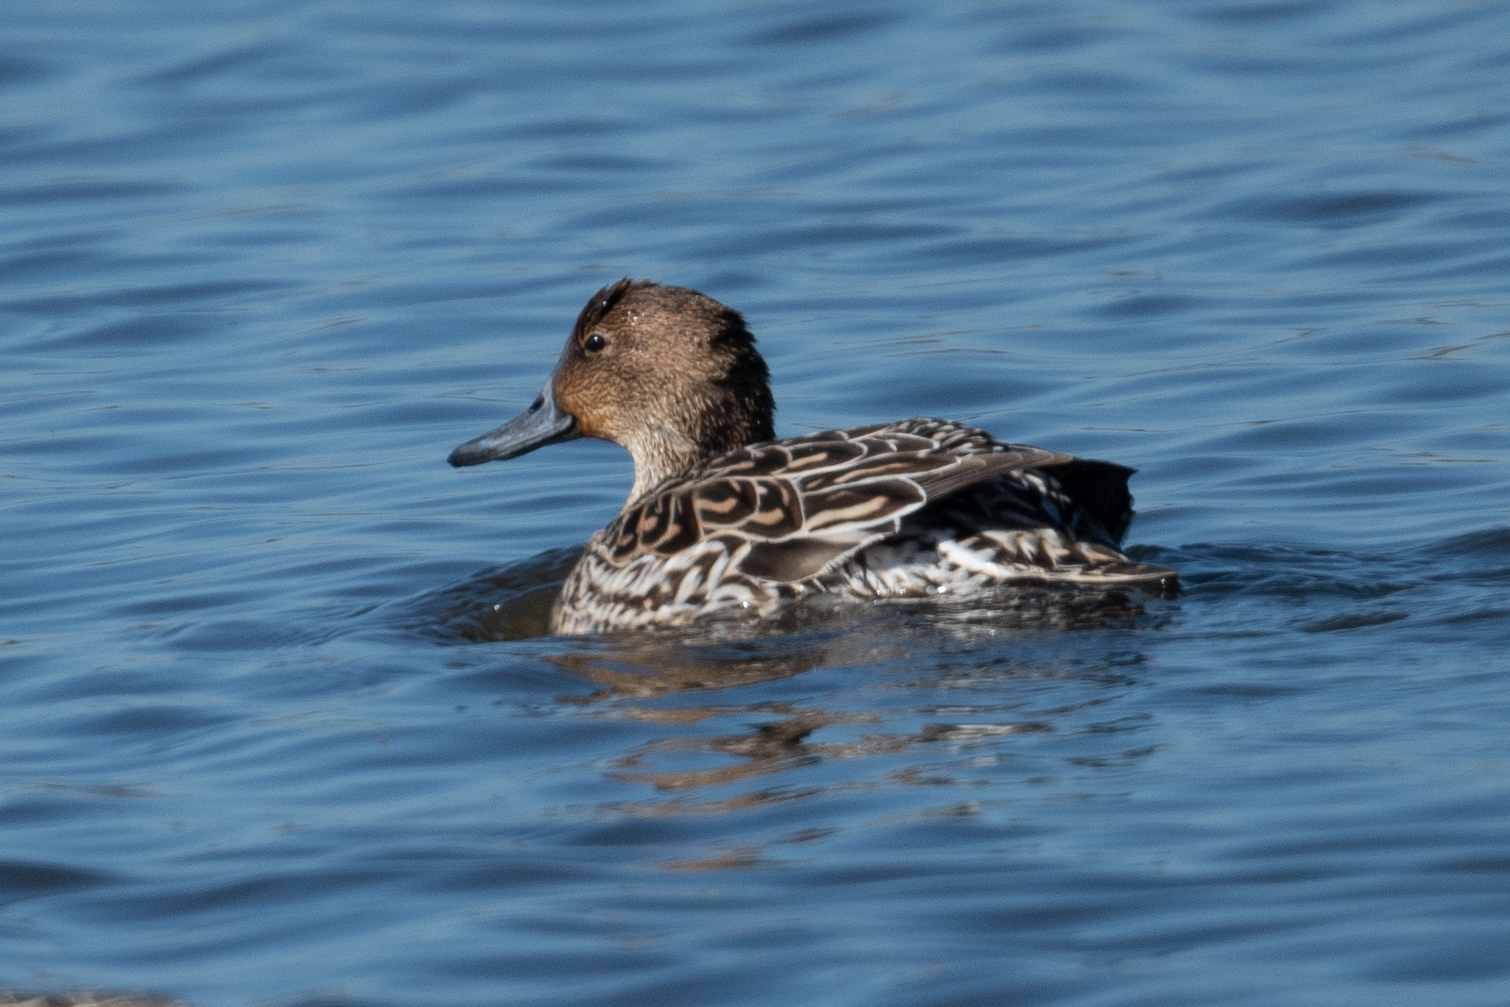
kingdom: Animalia
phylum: Chordata
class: Aves
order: Anseriformes
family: Anatidae
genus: Anas
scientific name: Anas acuta
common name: Northern pintail
